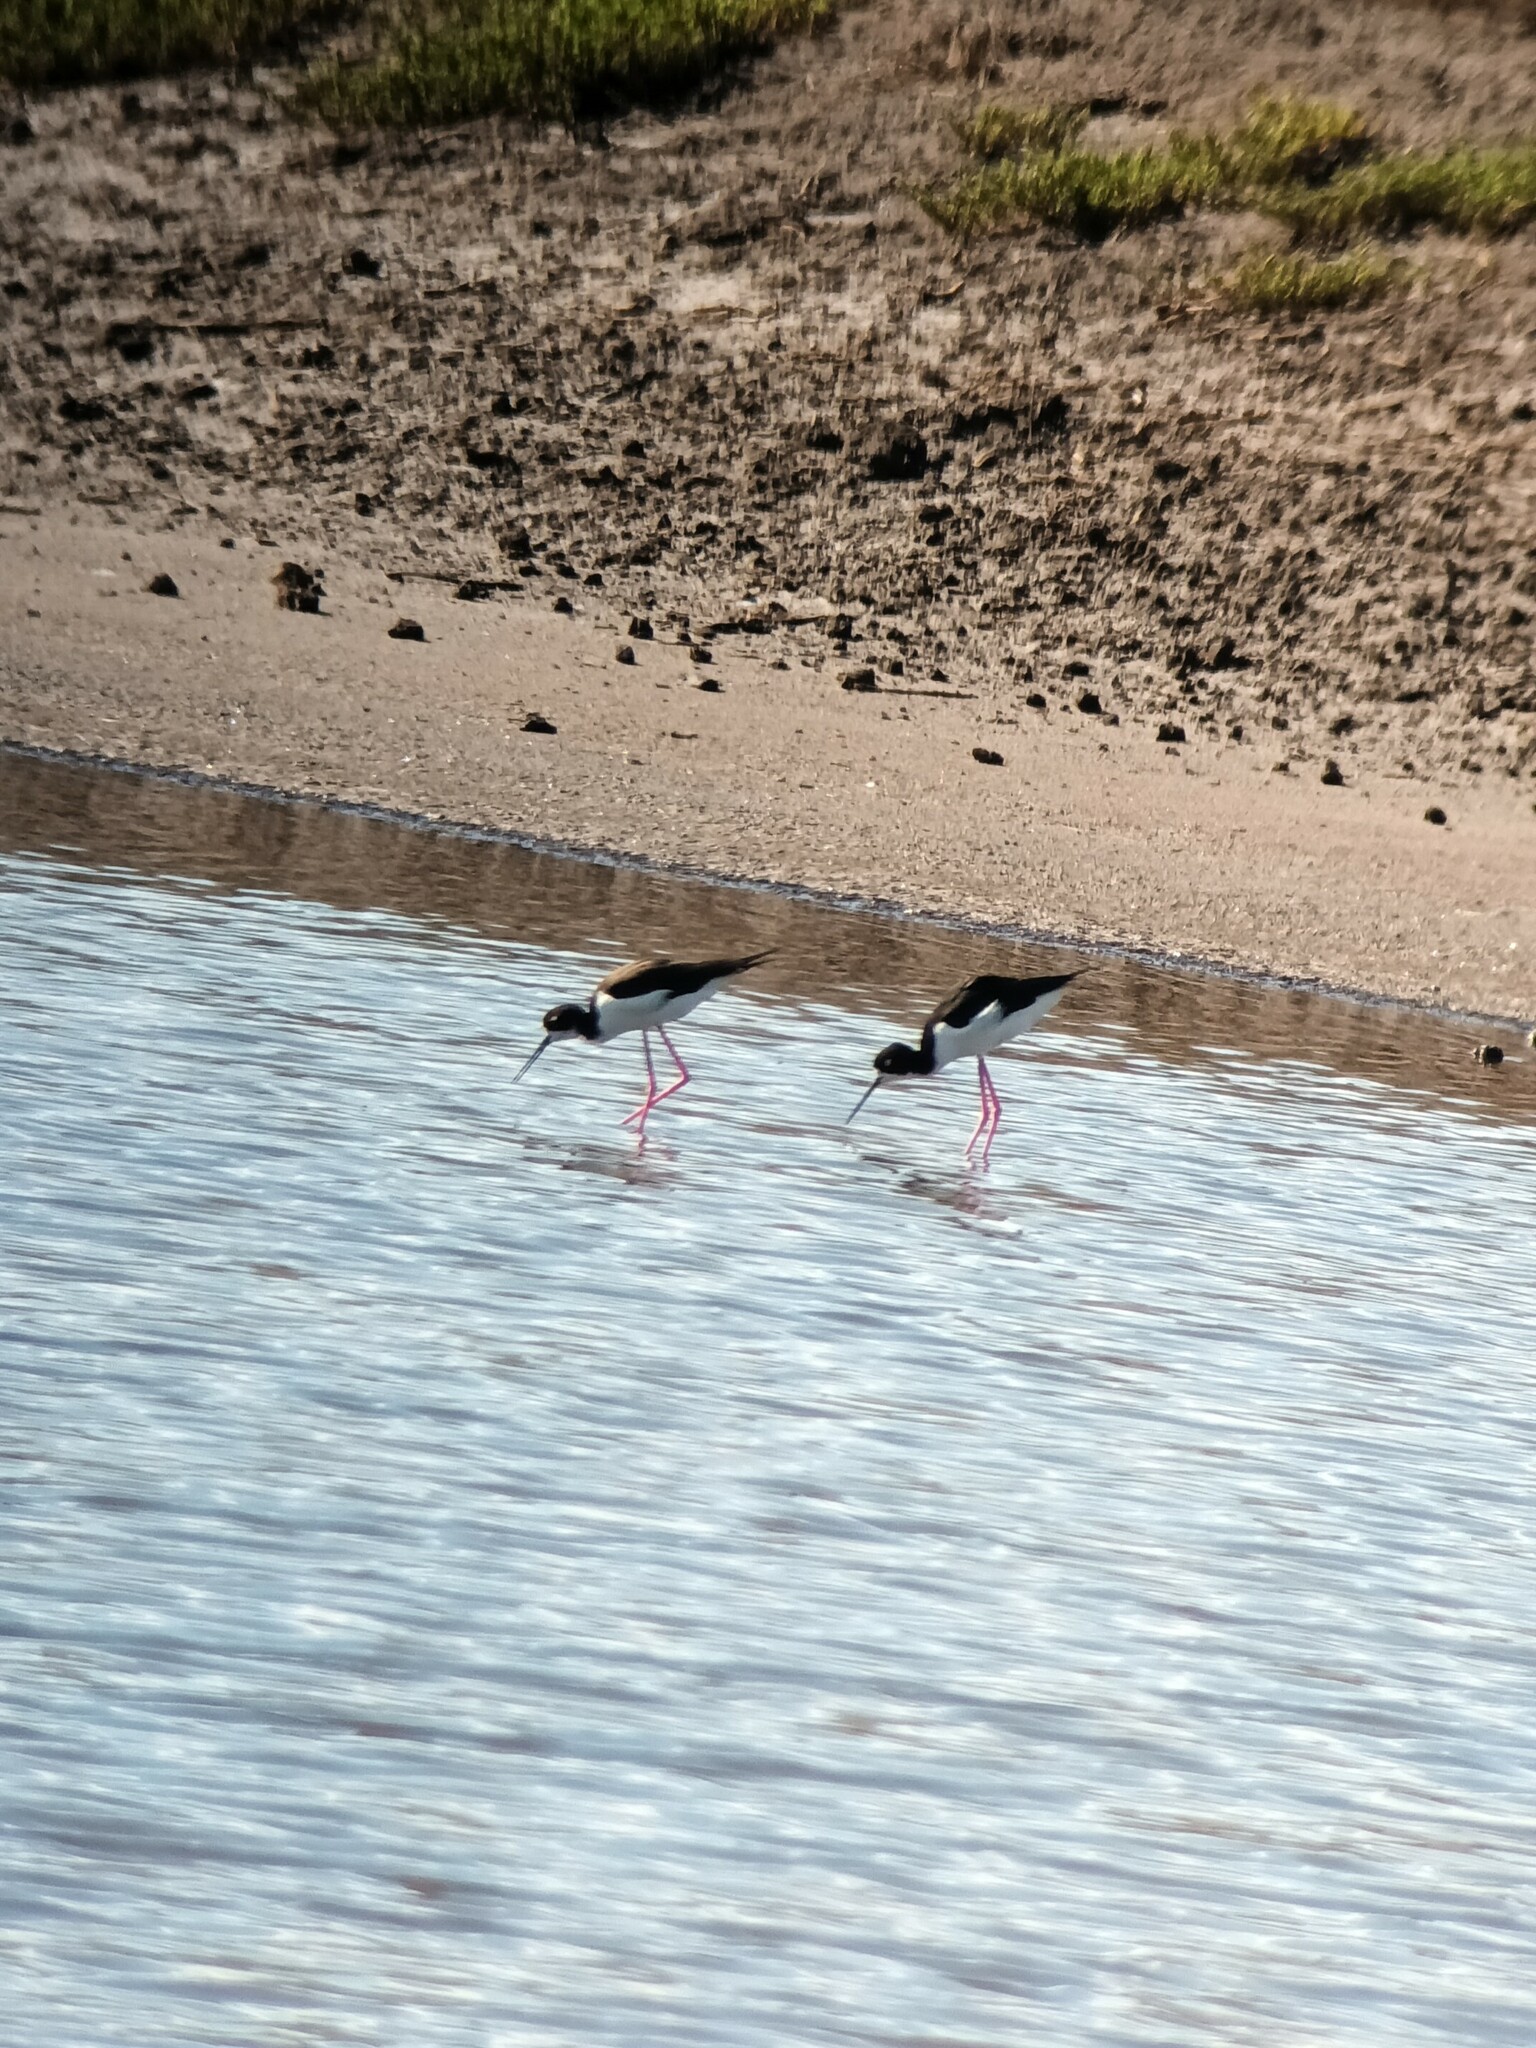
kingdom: Animalia
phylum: Chordata
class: Aves
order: Charadriiformes
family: Recurvirostridae
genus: Himantopus
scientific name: Himantopus mexicanus
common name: Black-necked stilt
